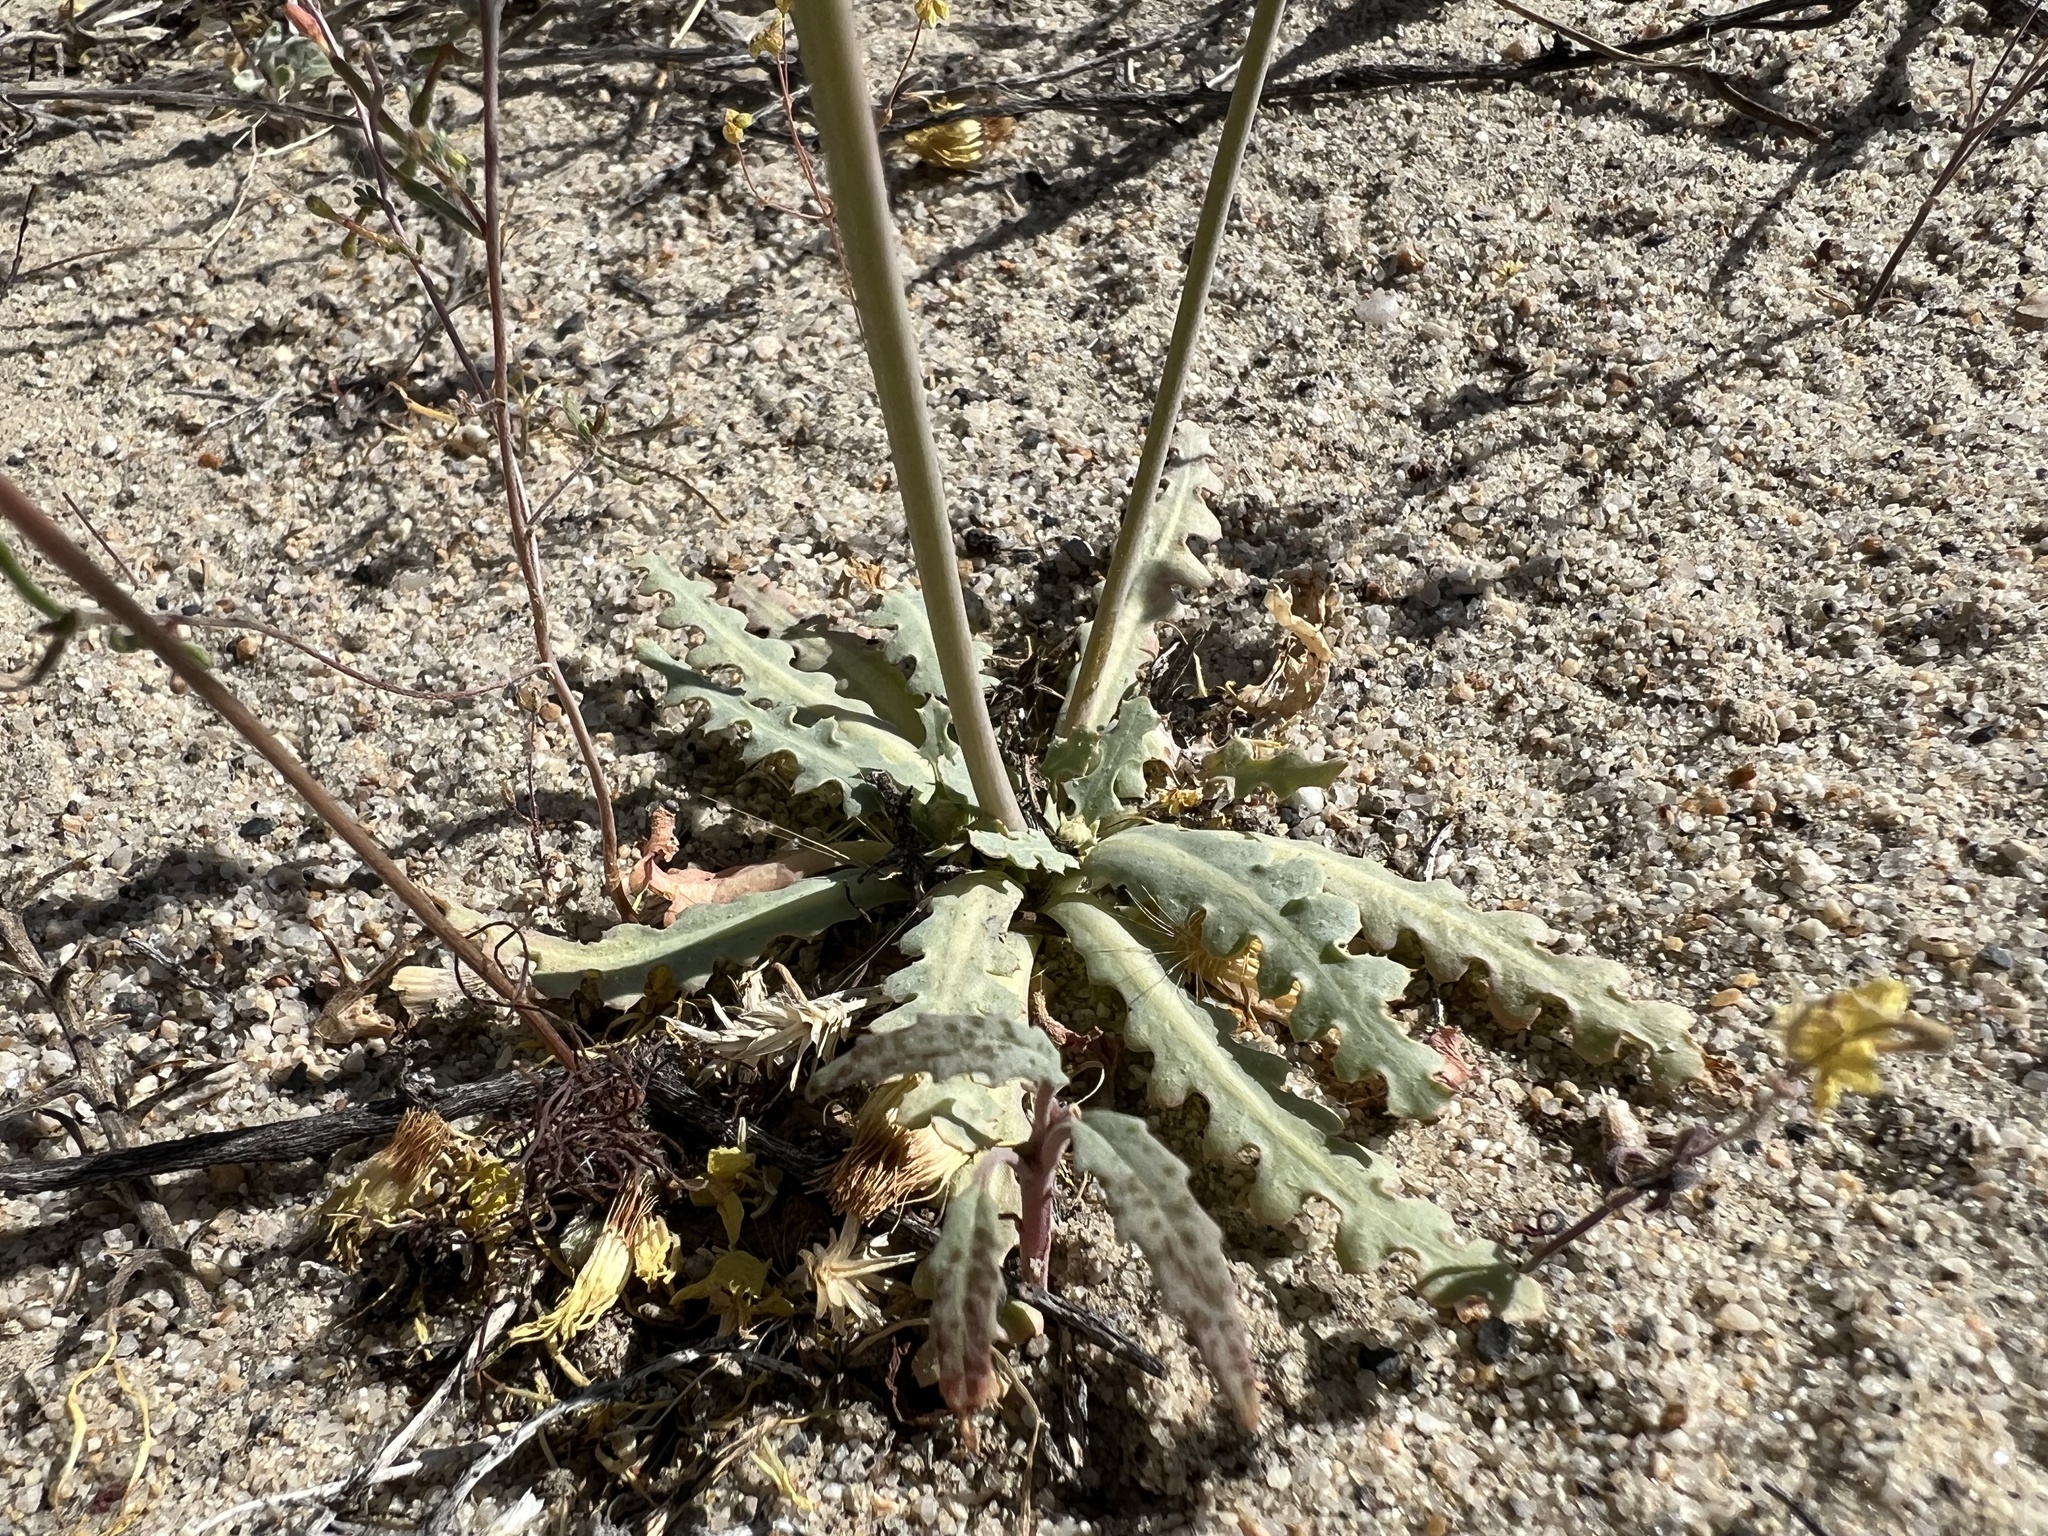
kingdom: Plantae
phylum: Tracheophyta
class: Magnoliopsida
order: Asterales
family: Asteraceae
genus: Malacothrix
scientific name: Malacothrix sonchoides
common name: Sow-thistle desert-dandelion
